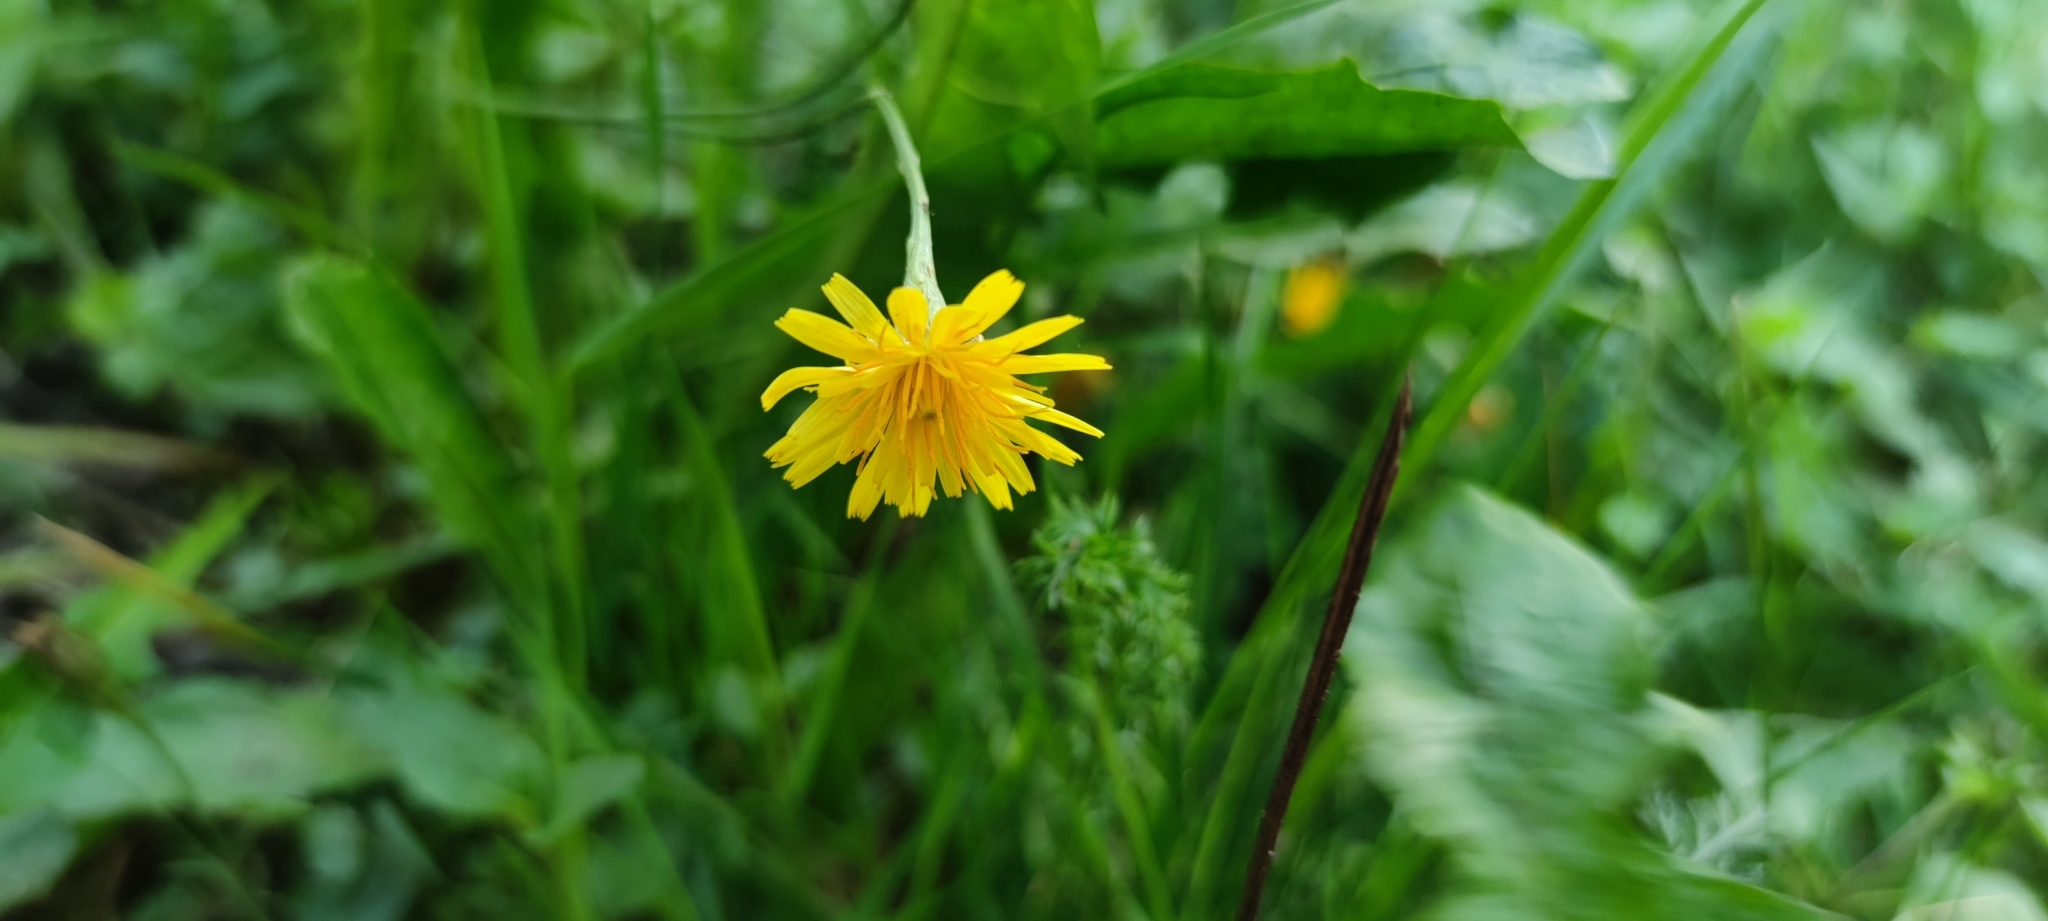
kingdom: Plantae
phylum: Tracheophyta
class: Magnoliopsida
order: Asterales
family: Asteraceae
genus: Scorzoneroides
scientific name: Scorzoneroides autumnalis
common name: Autumn hawkbit
